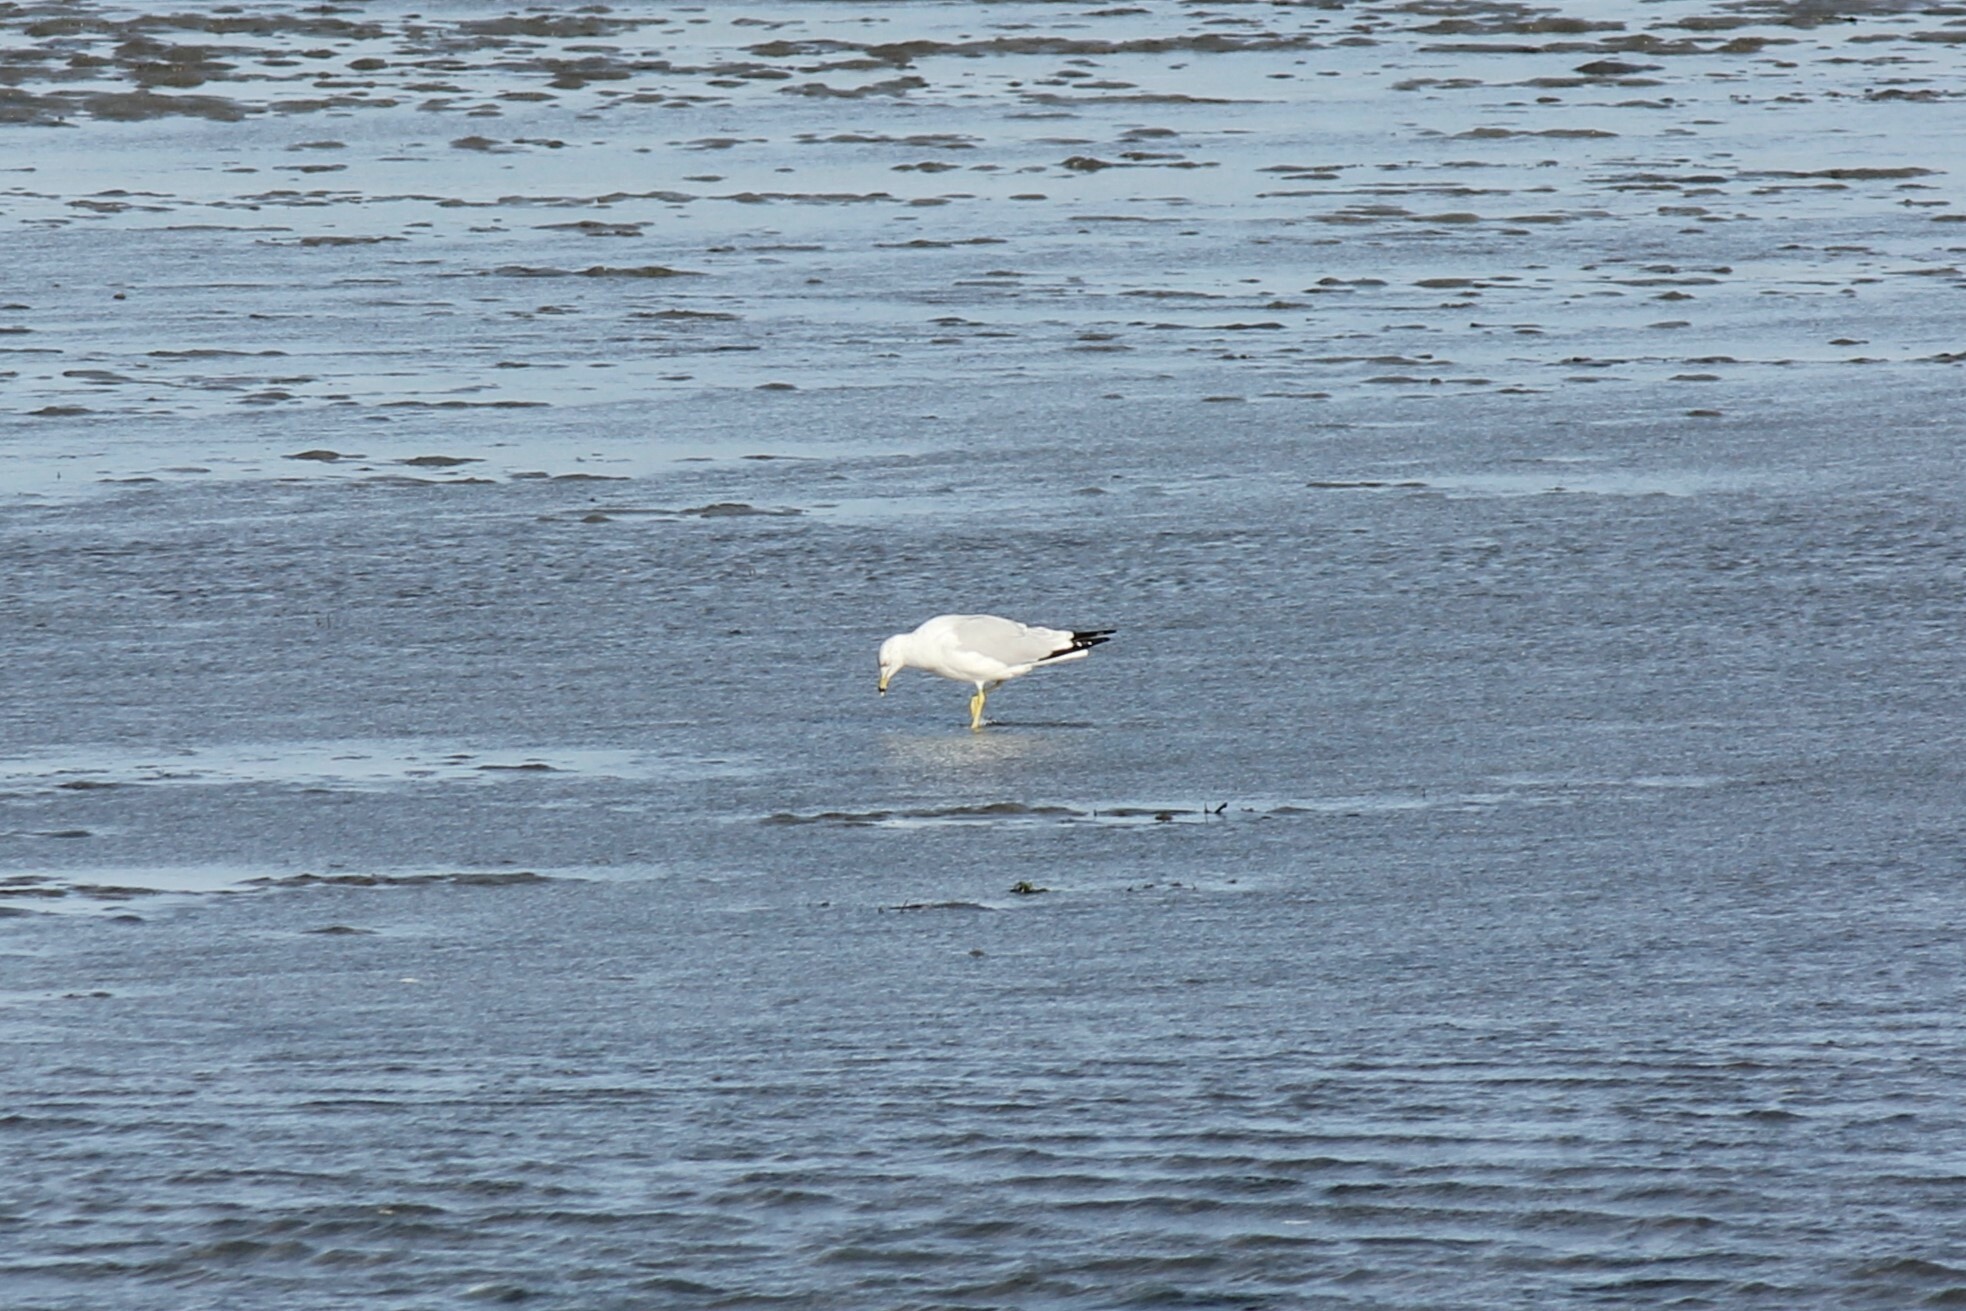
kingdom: Animalia
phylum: Chordata
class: Aves
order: Charadriiformes
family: Laridae
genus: Larus
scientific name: Larus delawarensis
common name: Ring-billed gull
